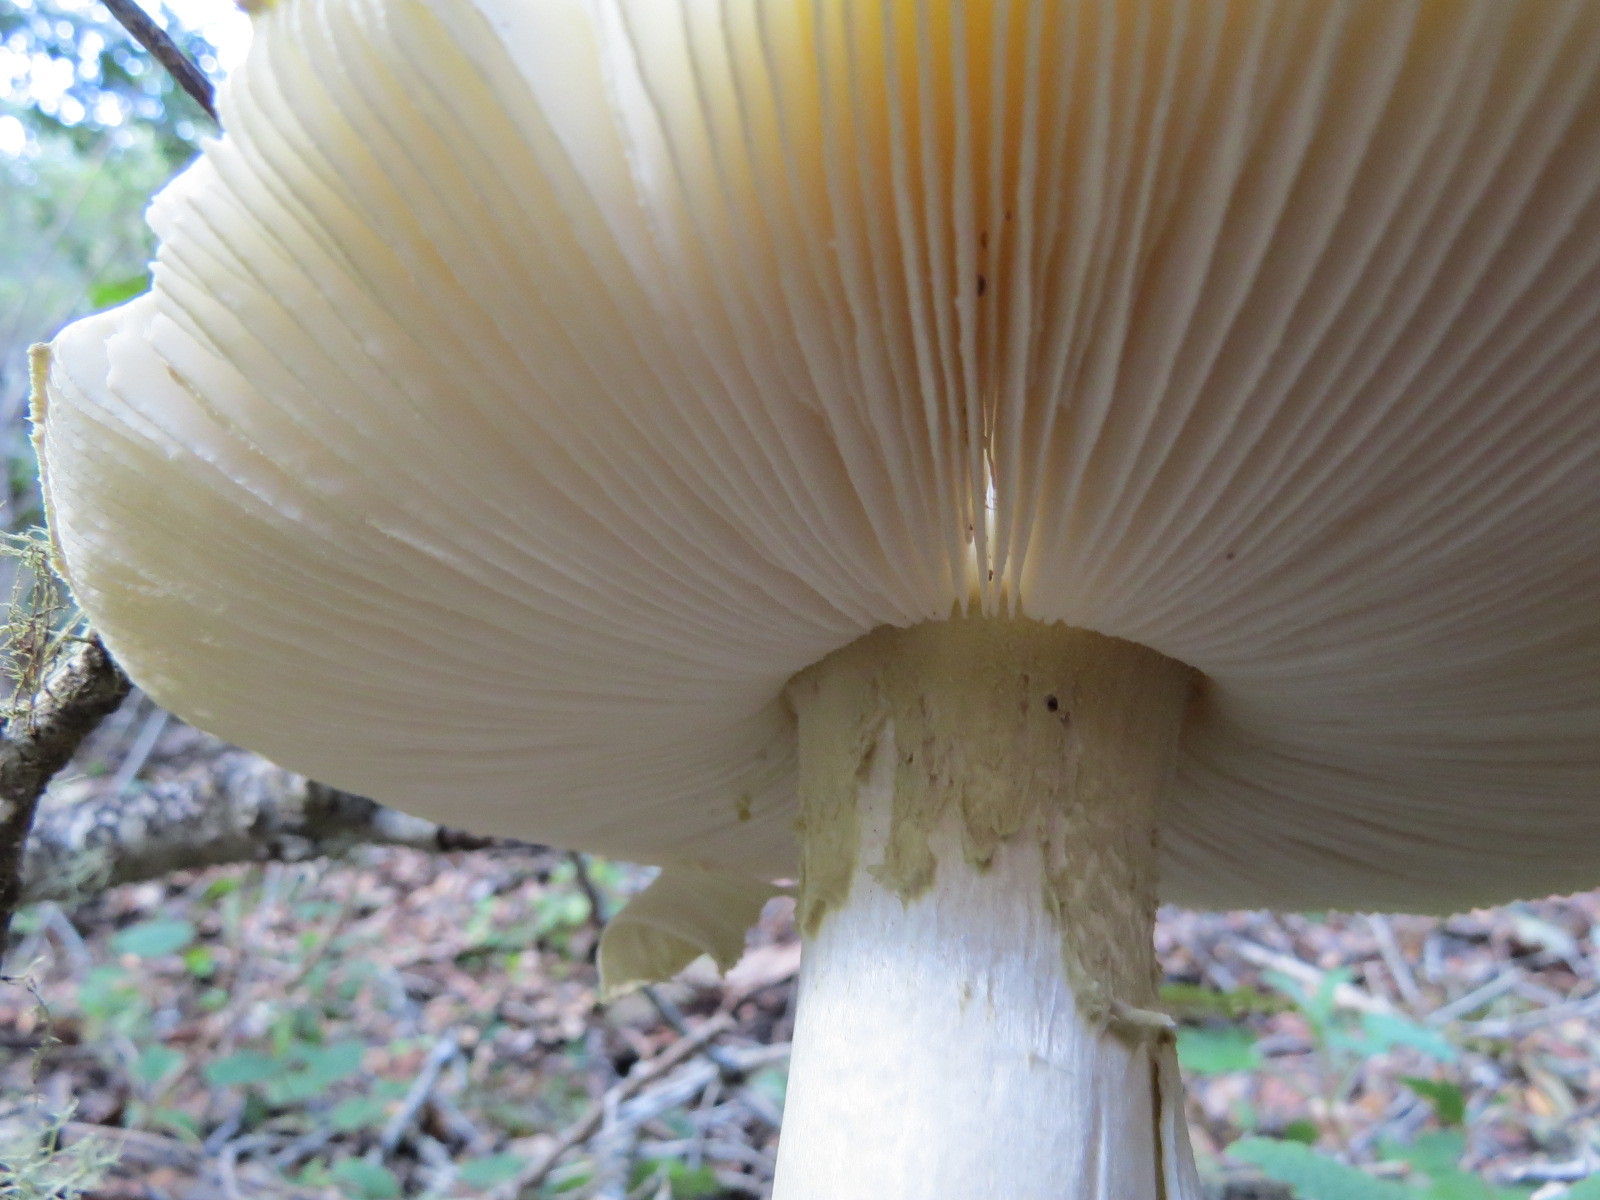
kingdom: Fungi
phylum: Basidiomycota
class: Agaricomycetes
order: Agaricales
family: Amanitaceae
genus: Amanita
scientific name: Amanita phalloides
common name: Death cap
